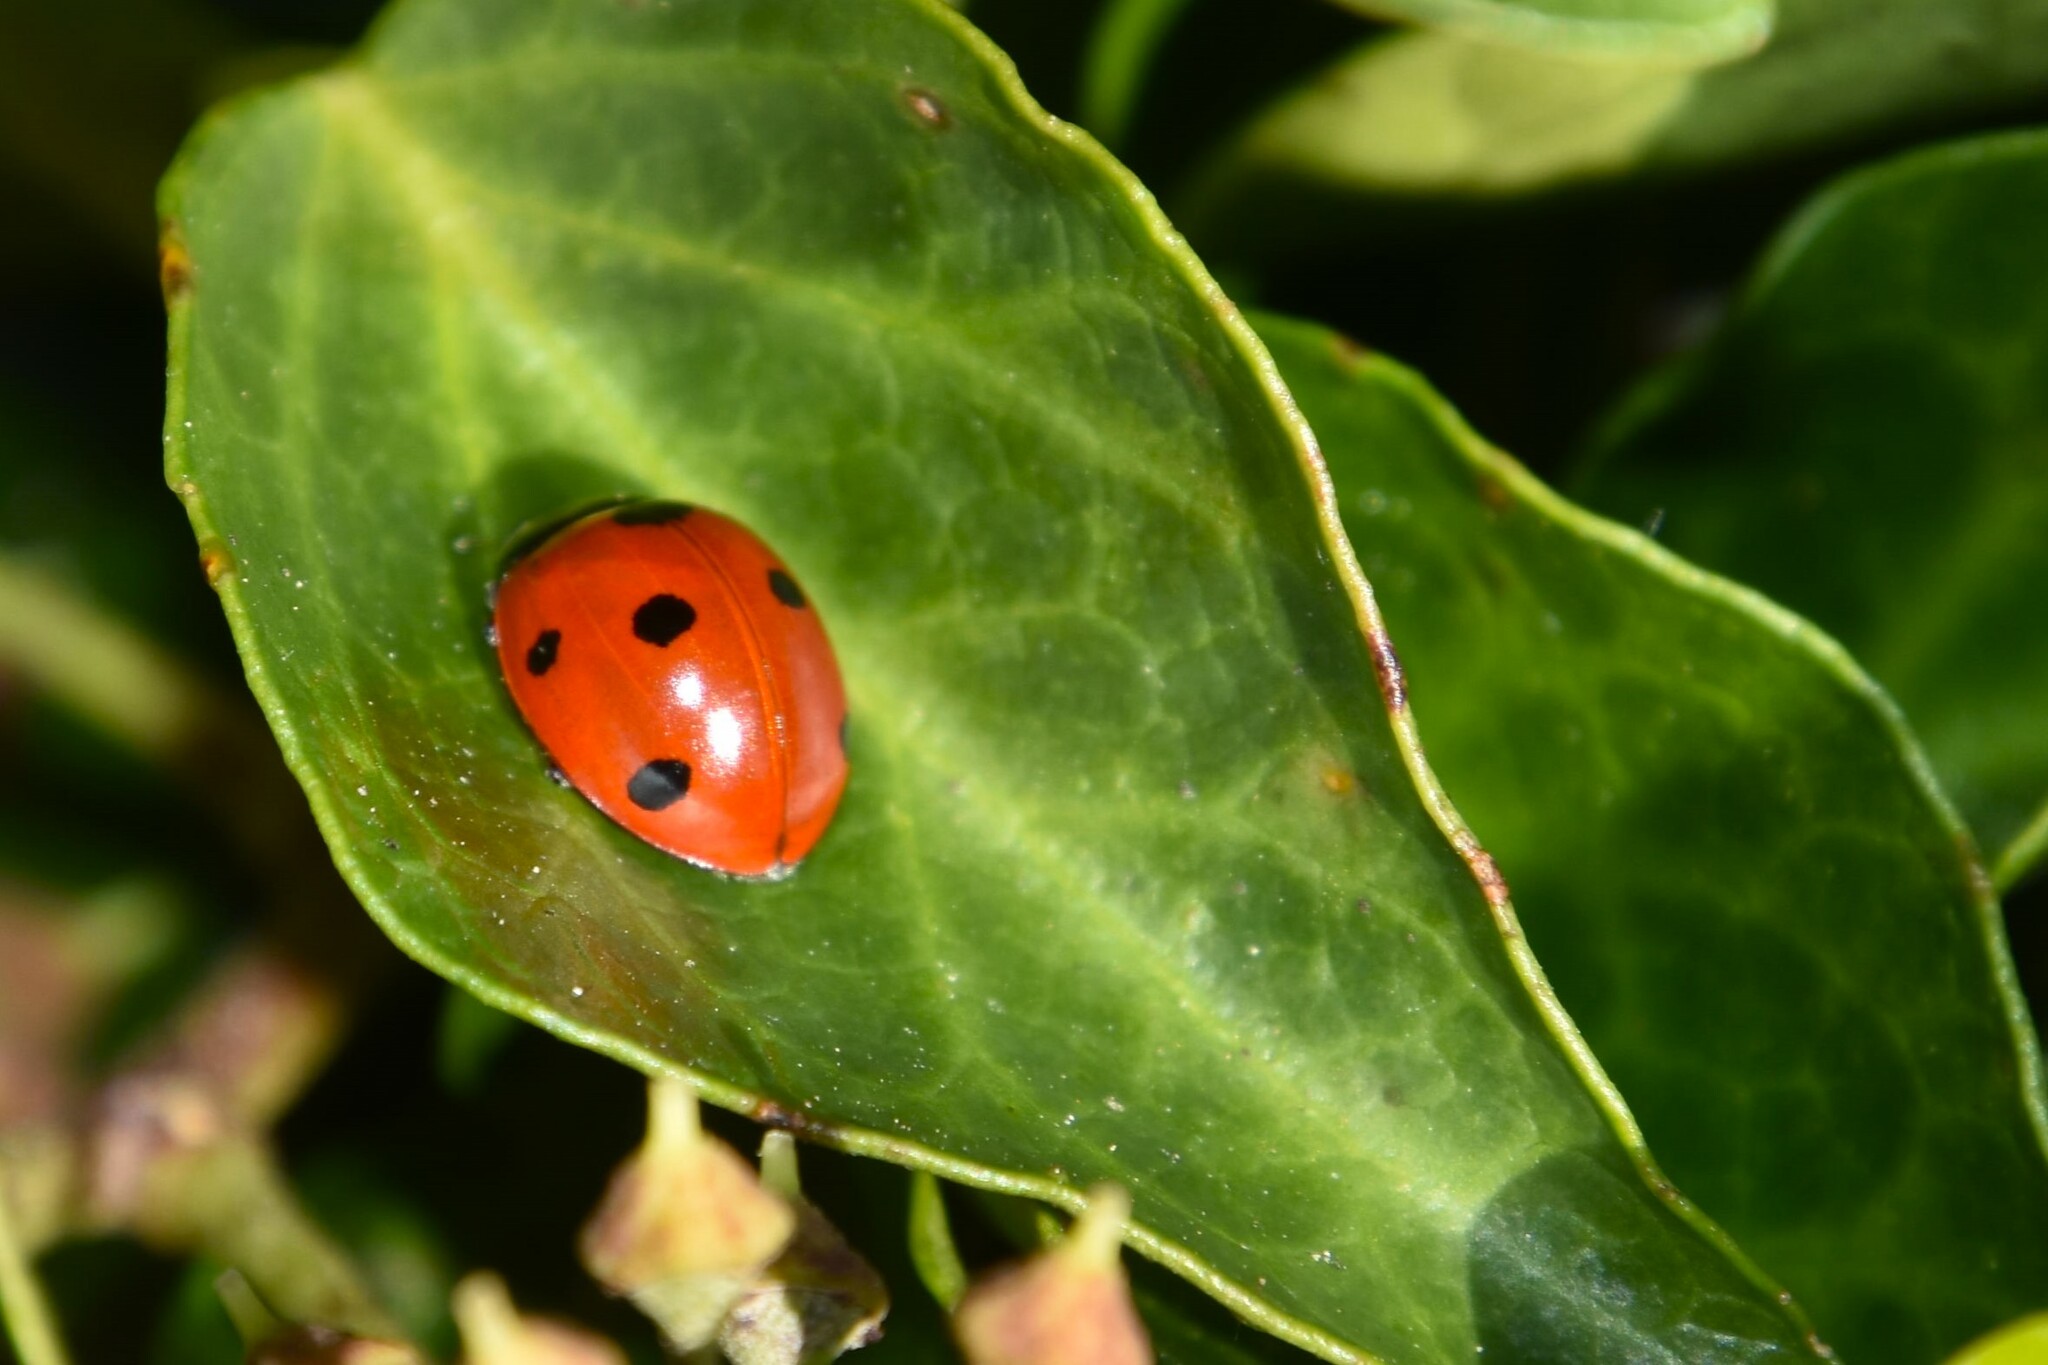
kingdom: Animalia
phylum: Arthropoda
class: Insecta
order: Coleoptera
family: Coccinellidae
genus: Coccinella
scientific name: Coccinella septempunctata
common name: Sevenspotted lady beetle
